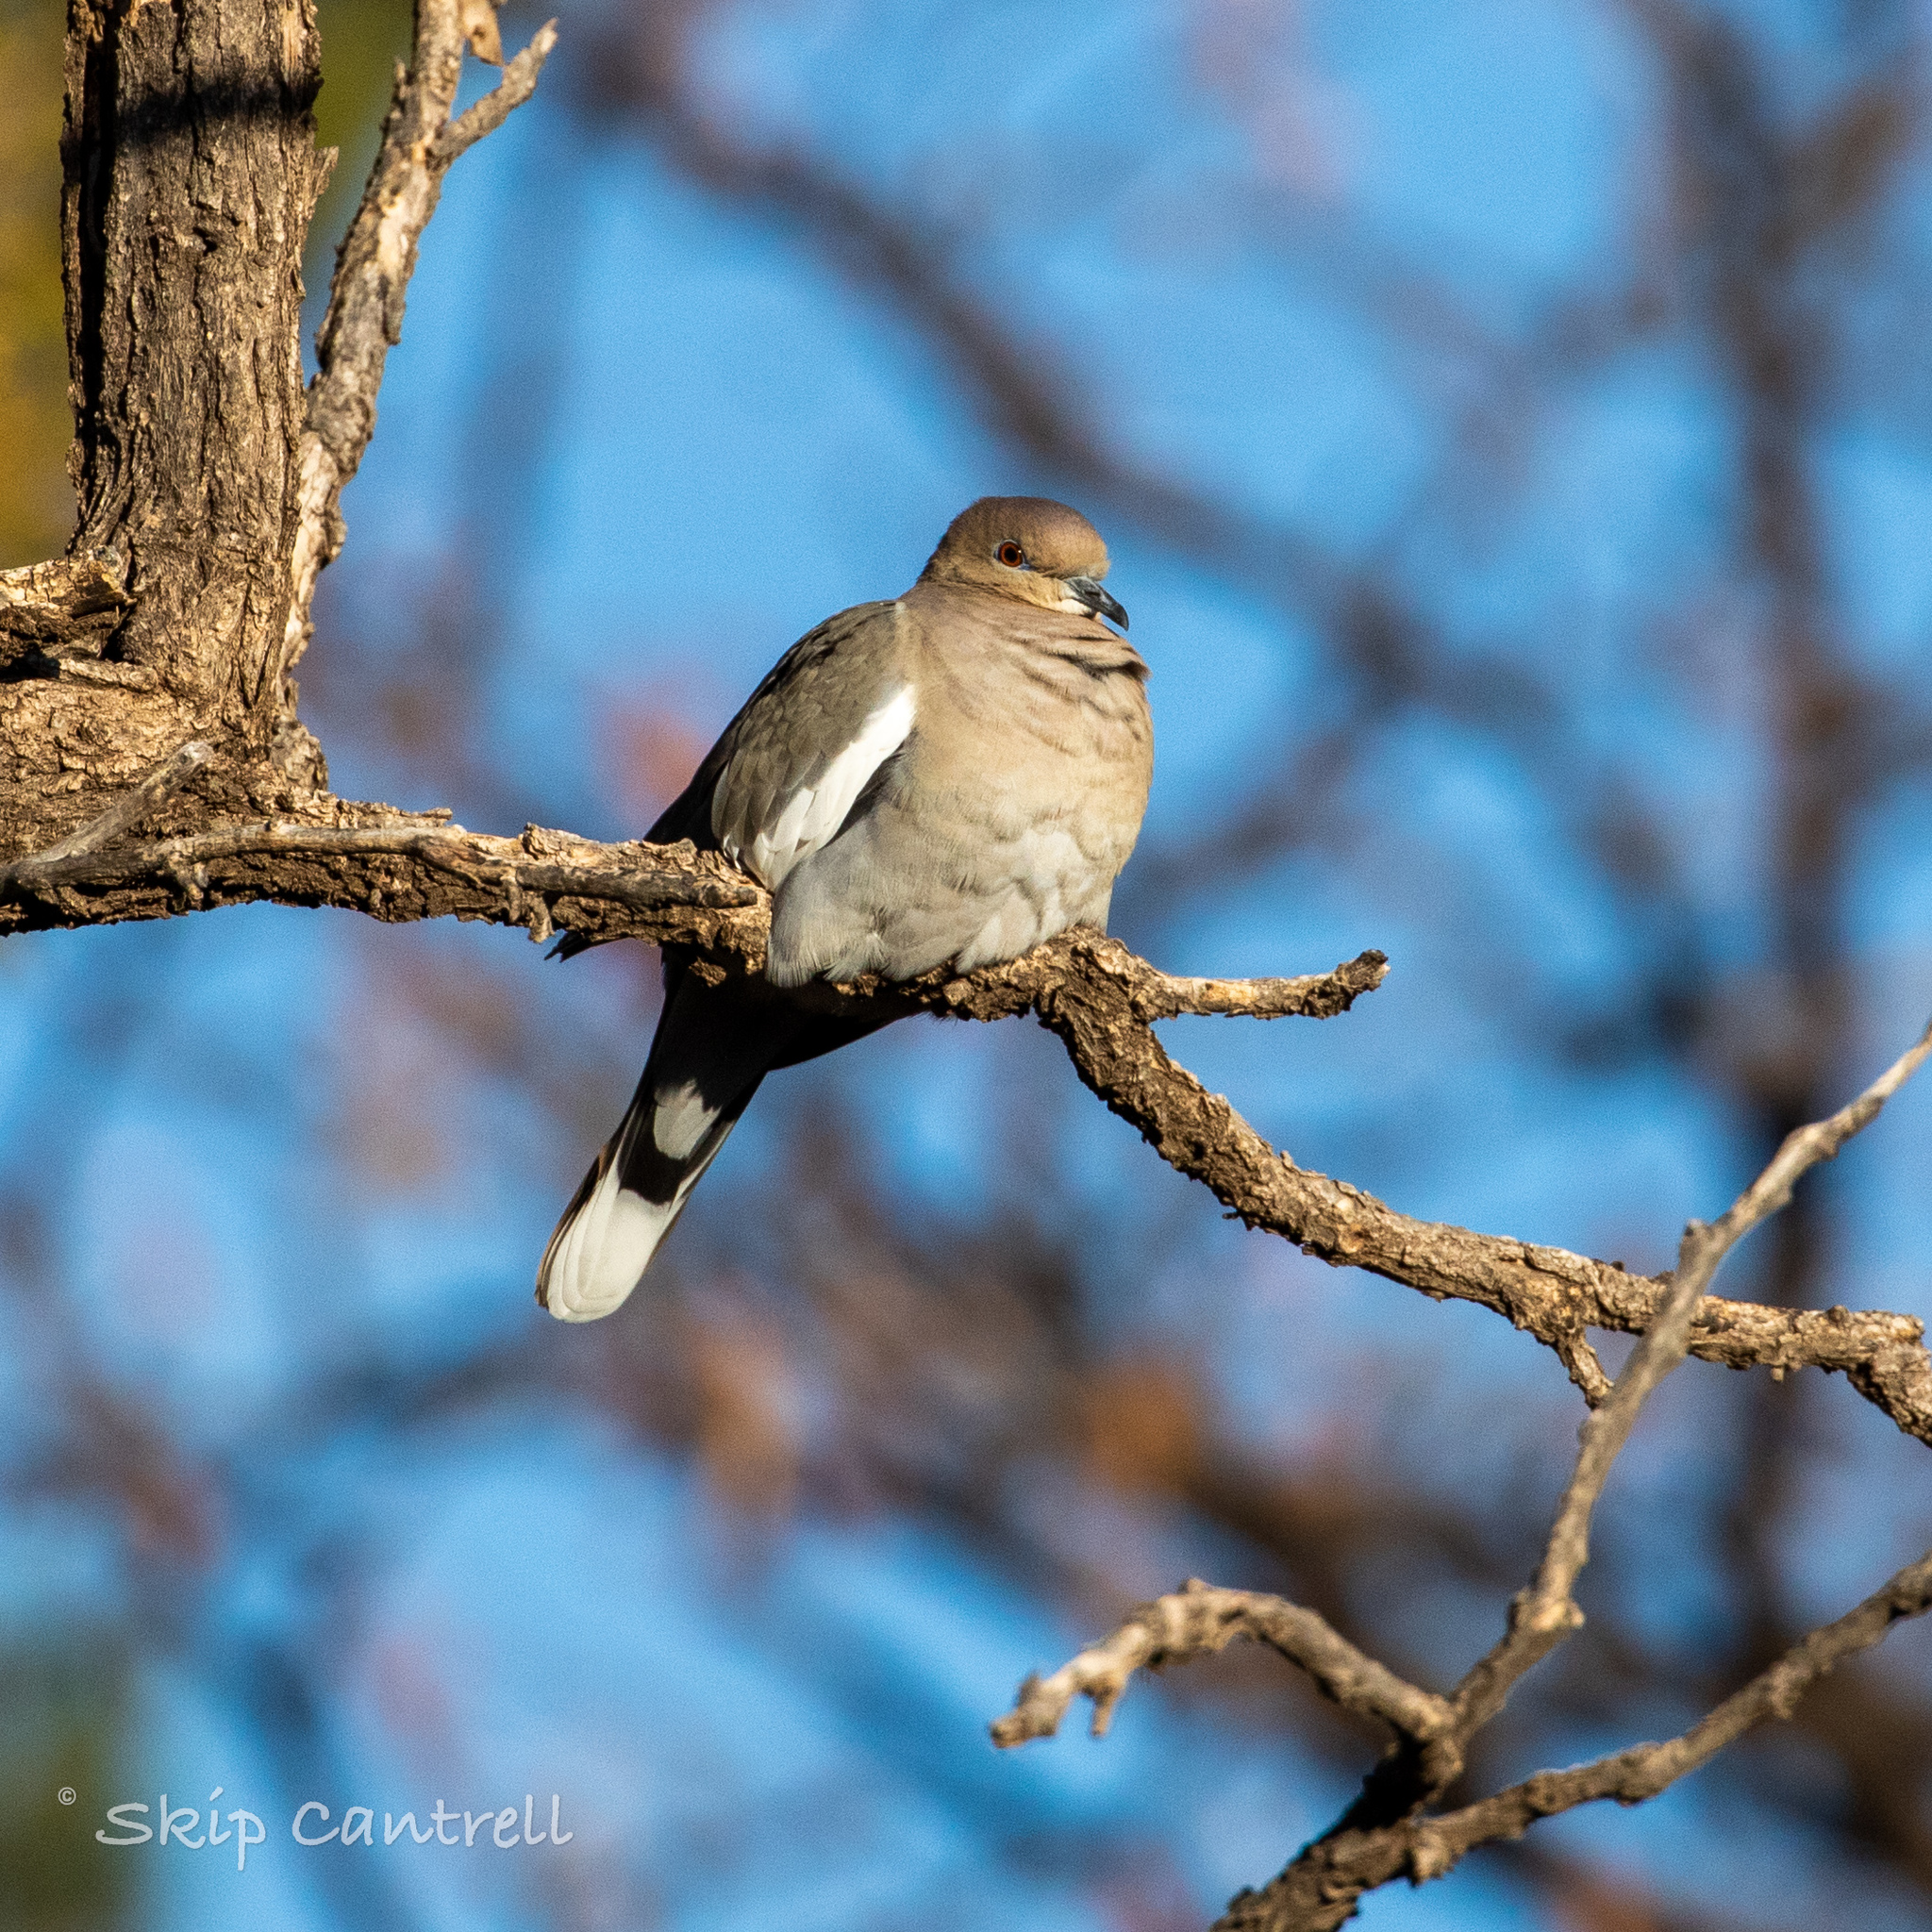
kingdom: Animalia
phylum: Chordata
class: Aves
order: Columbiformes
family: Columbidae
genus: Zenaida
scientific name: Zenaida asiatica
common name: White-winged dove
